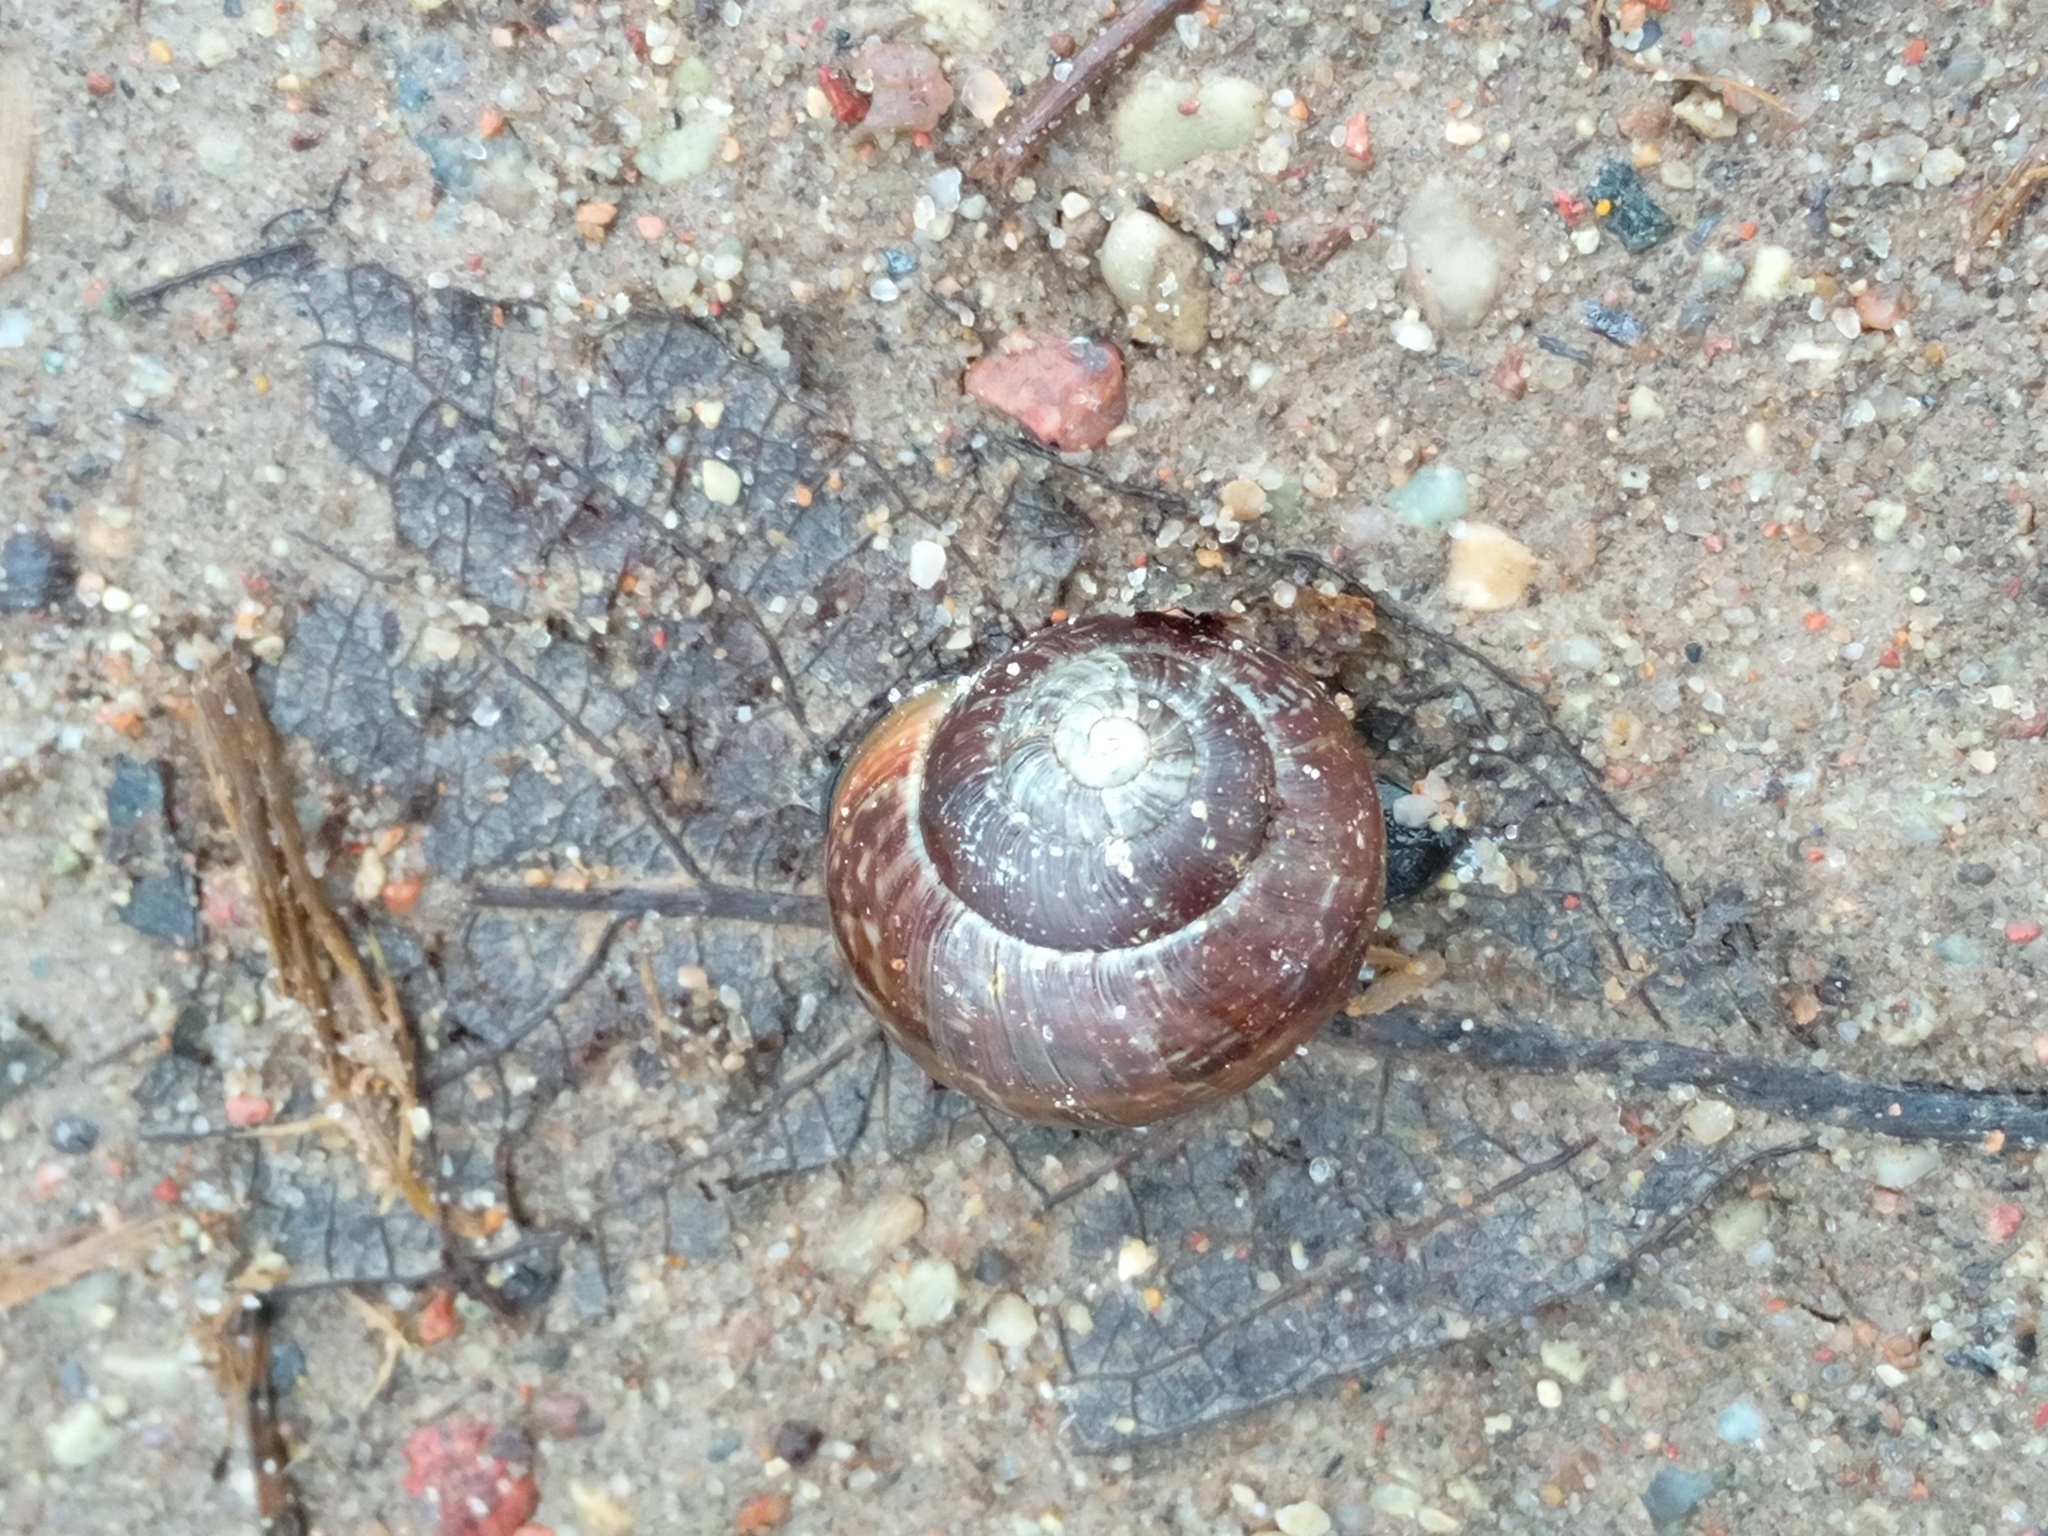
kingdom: Animalia
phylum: Mollusca
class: Gastropoda
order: Stylommatophora
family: Helicidae
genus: Arianta
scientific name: Arianta arbustorum
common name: Copse snail
